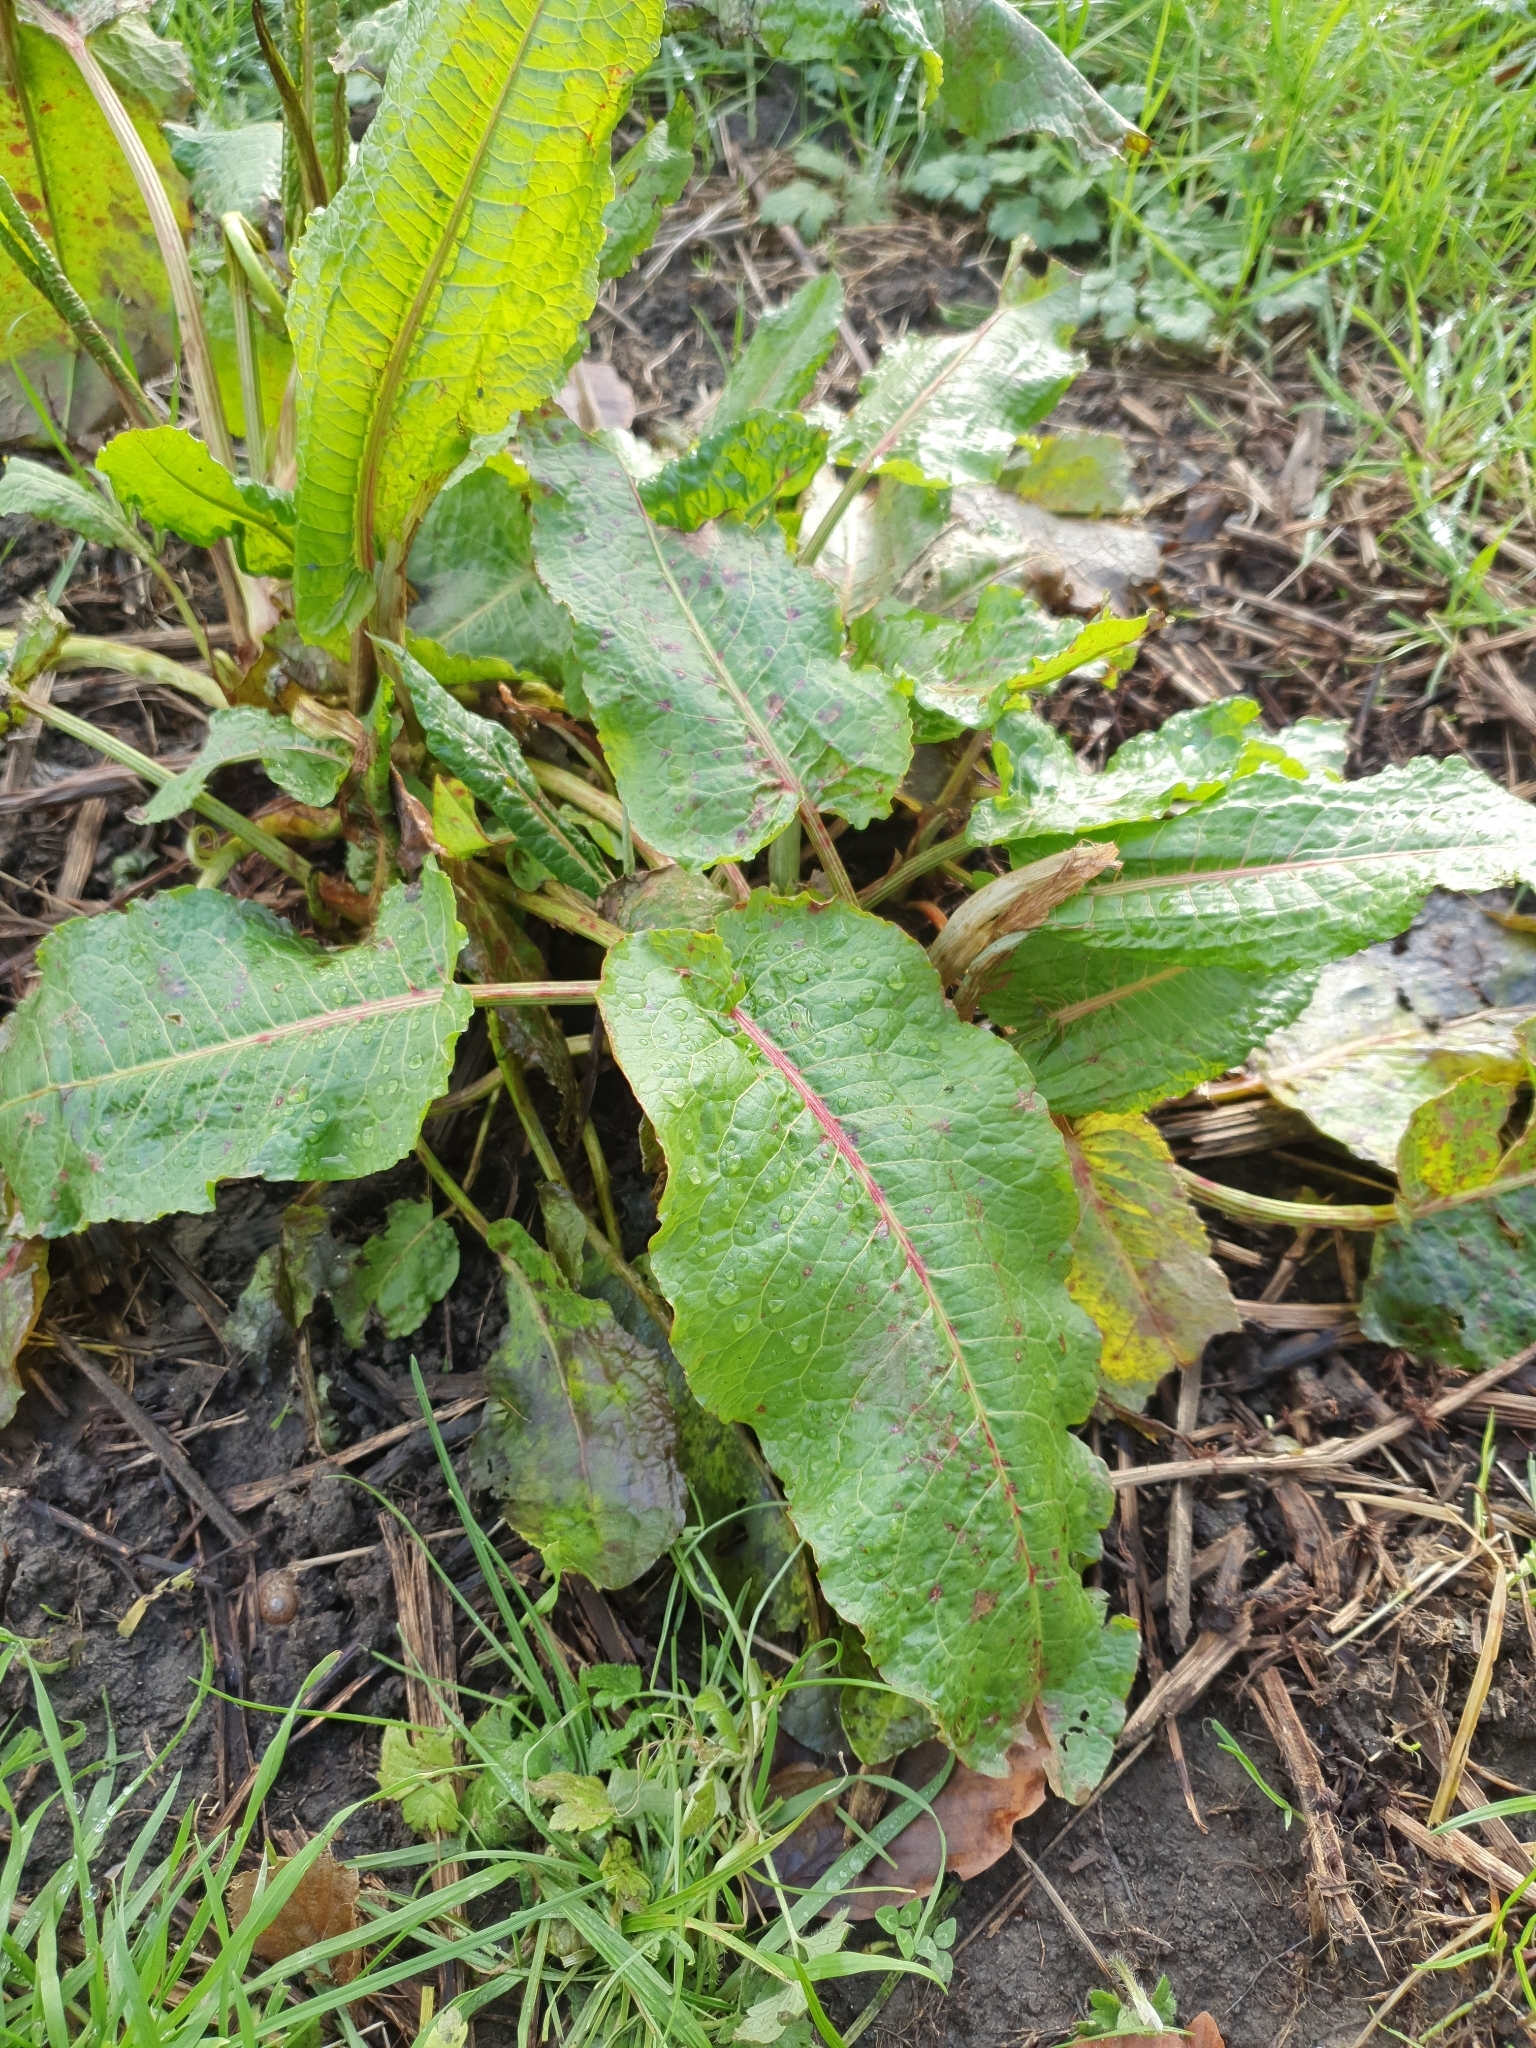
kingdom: Plantae
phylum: Tracheophyta
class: Magnoliopsida
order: Caryophyllales
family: Polygonaceae
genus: Rumex
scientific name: Rumex obtusifolius
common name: Bitter dock
